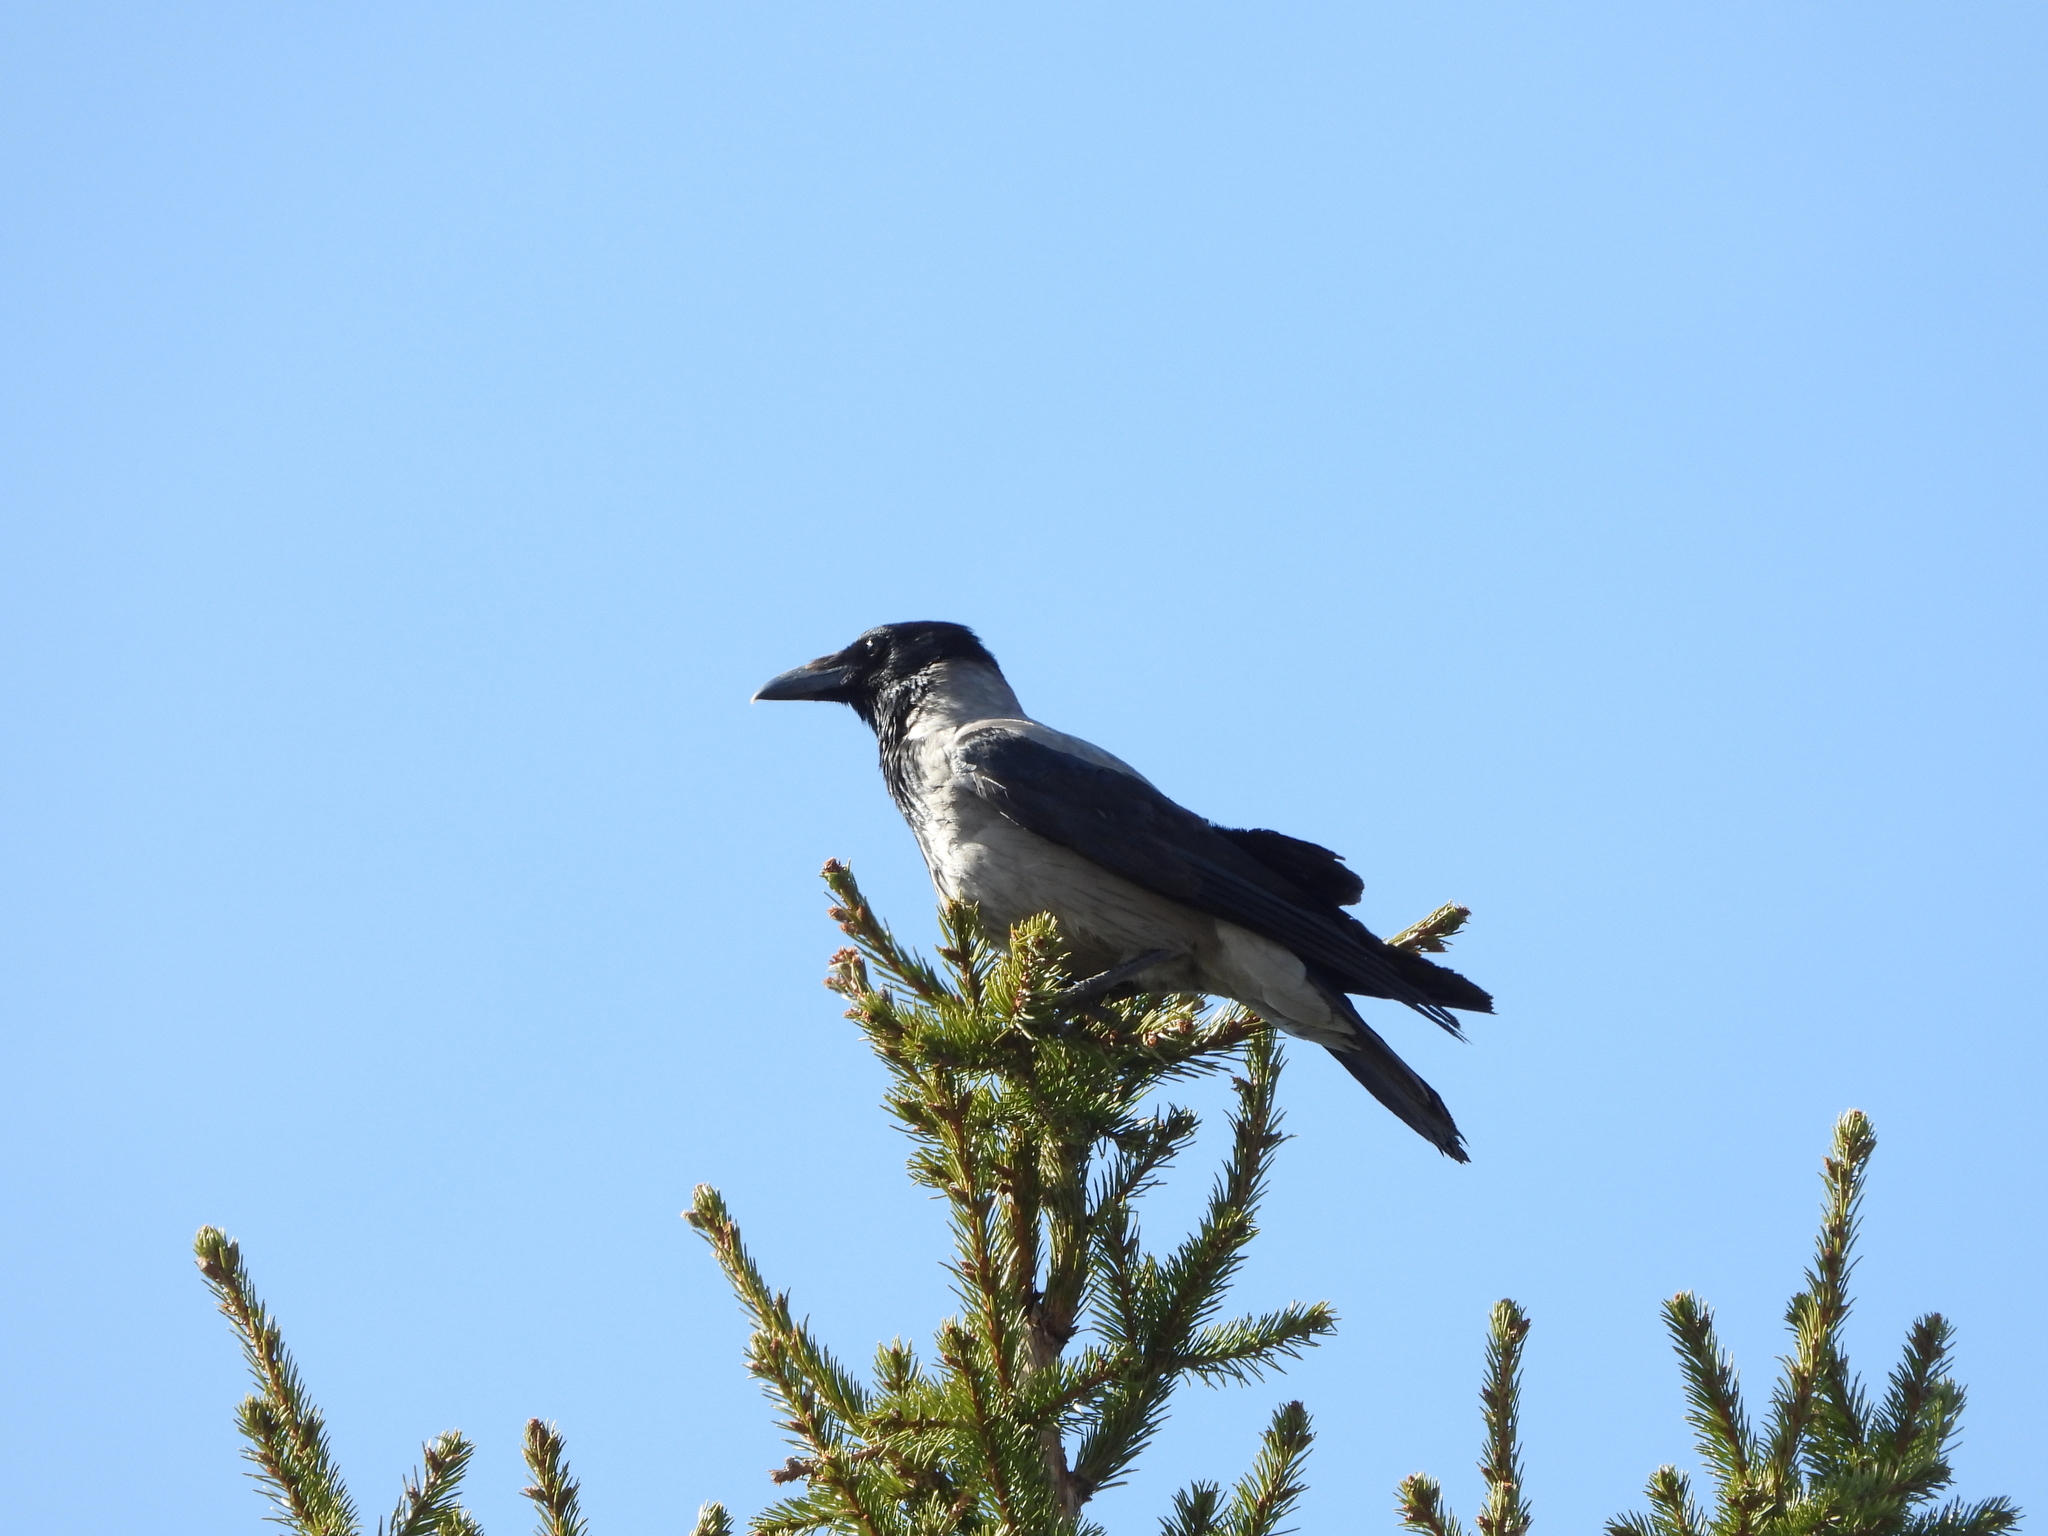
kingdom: Animalia
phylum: Chordata
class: Aves
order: Passeriformes
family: Corvidae
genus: Corvus
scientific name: Corvus cornix
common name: Hooded crow
